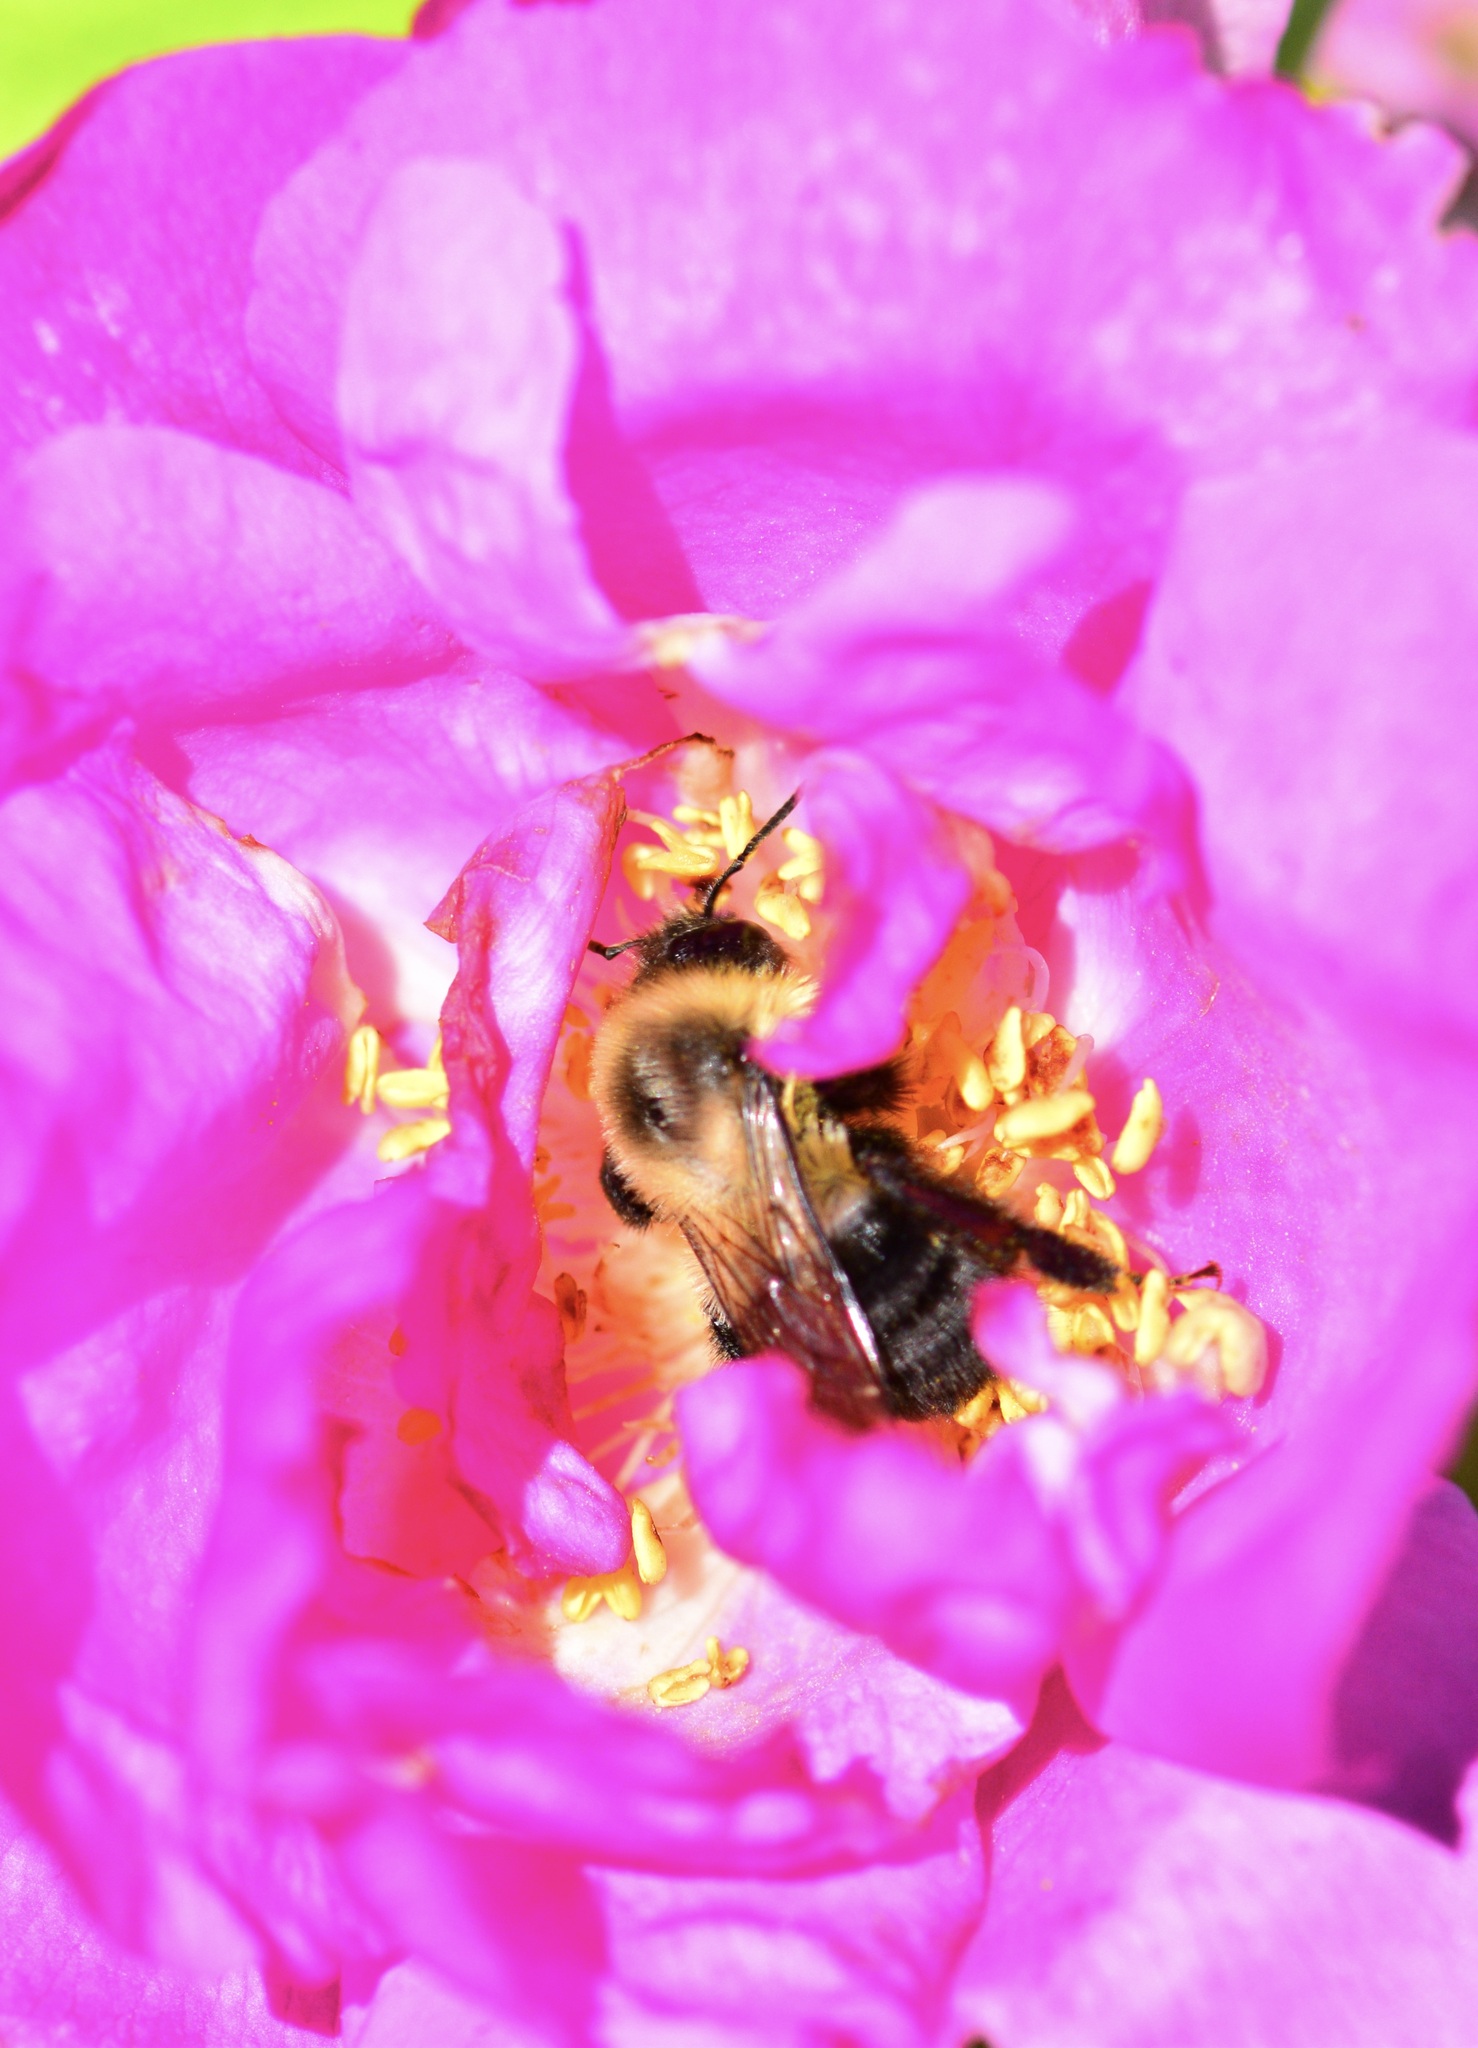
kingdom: Animalia
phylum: Arthropoda
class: Insecta
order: Hymenoptera
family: Apidae
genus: Bombus
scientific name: Bombus impatiens
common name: Common eastern bumble bee
